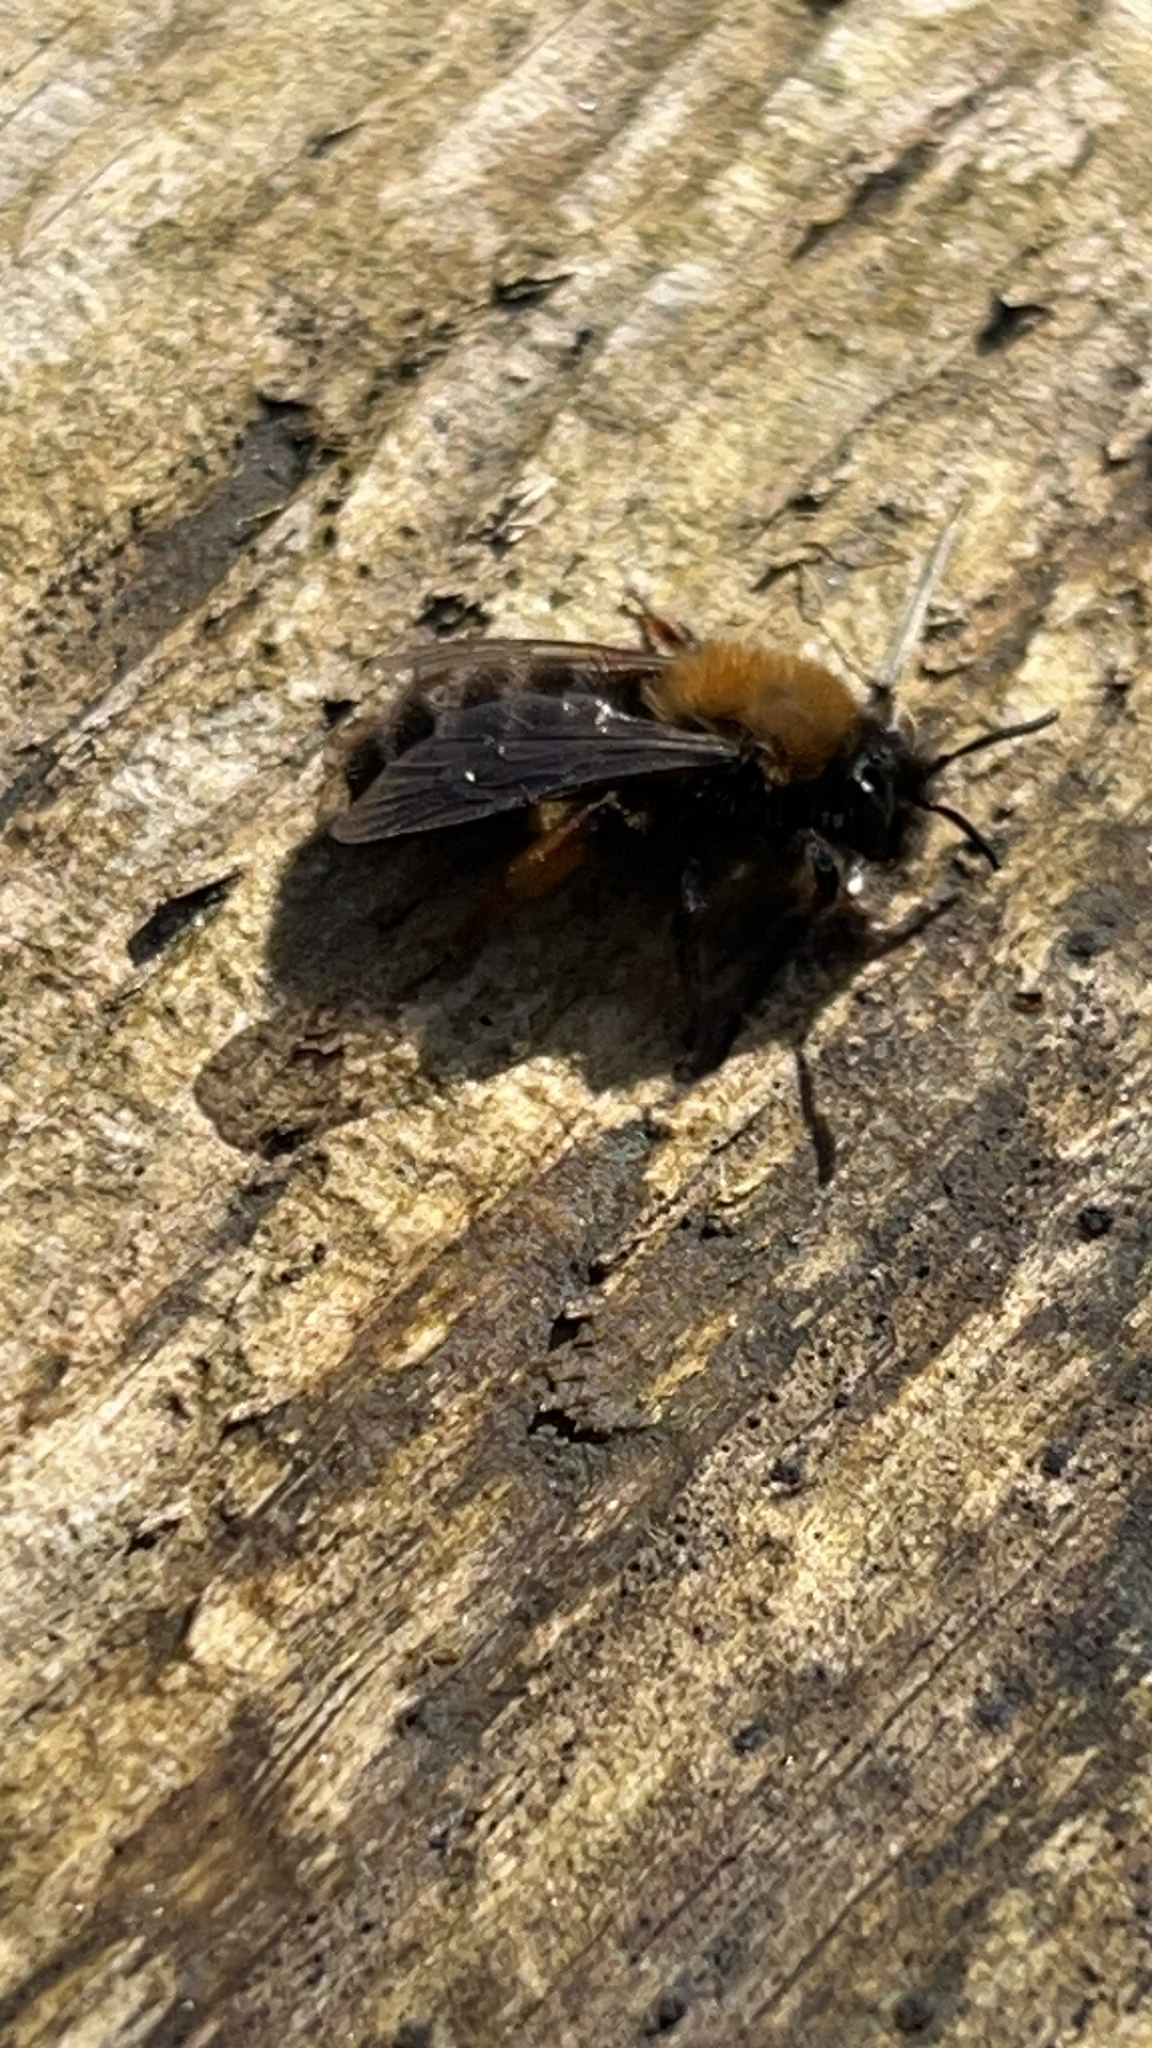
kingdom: Animalia
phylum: Arthropoda
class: Insecta
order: Hymenoptera
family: Andrenidae
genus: Andrena
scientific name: Andrena clarkella
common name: Clarke's mining bee
